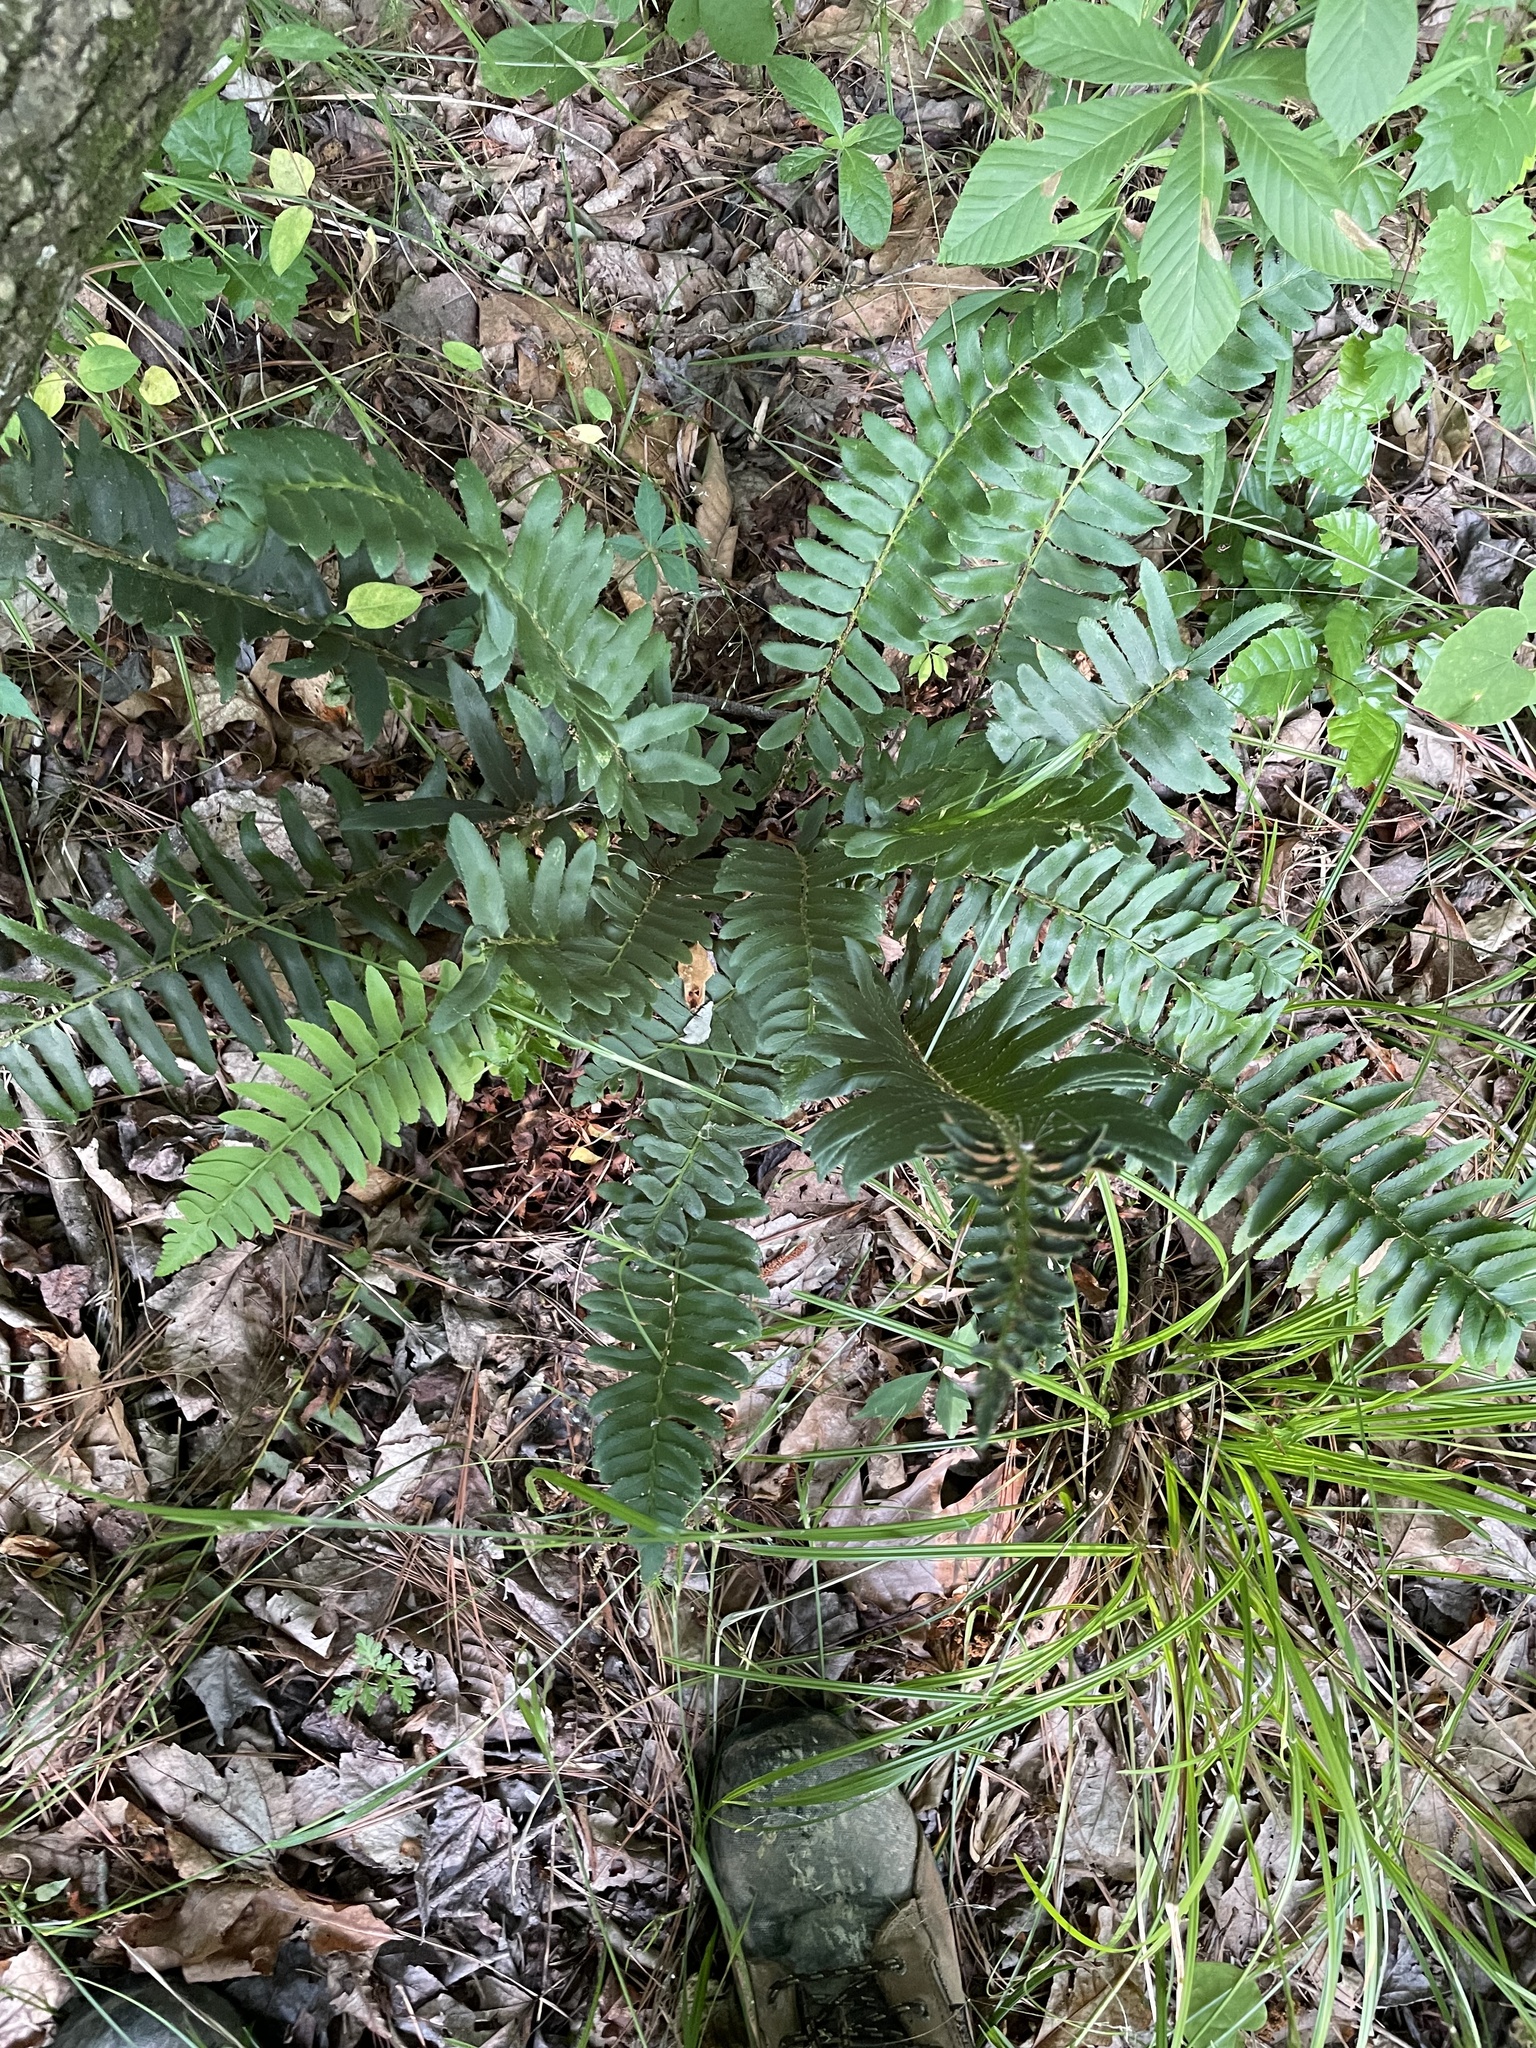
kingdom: Plantae
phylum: Tracheophyta
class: Polypodiopsida
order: Polypodiales
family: Dryopteridaceae
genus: Polystichum
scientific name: Polystichum acrostichoides
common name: Christmas fern
